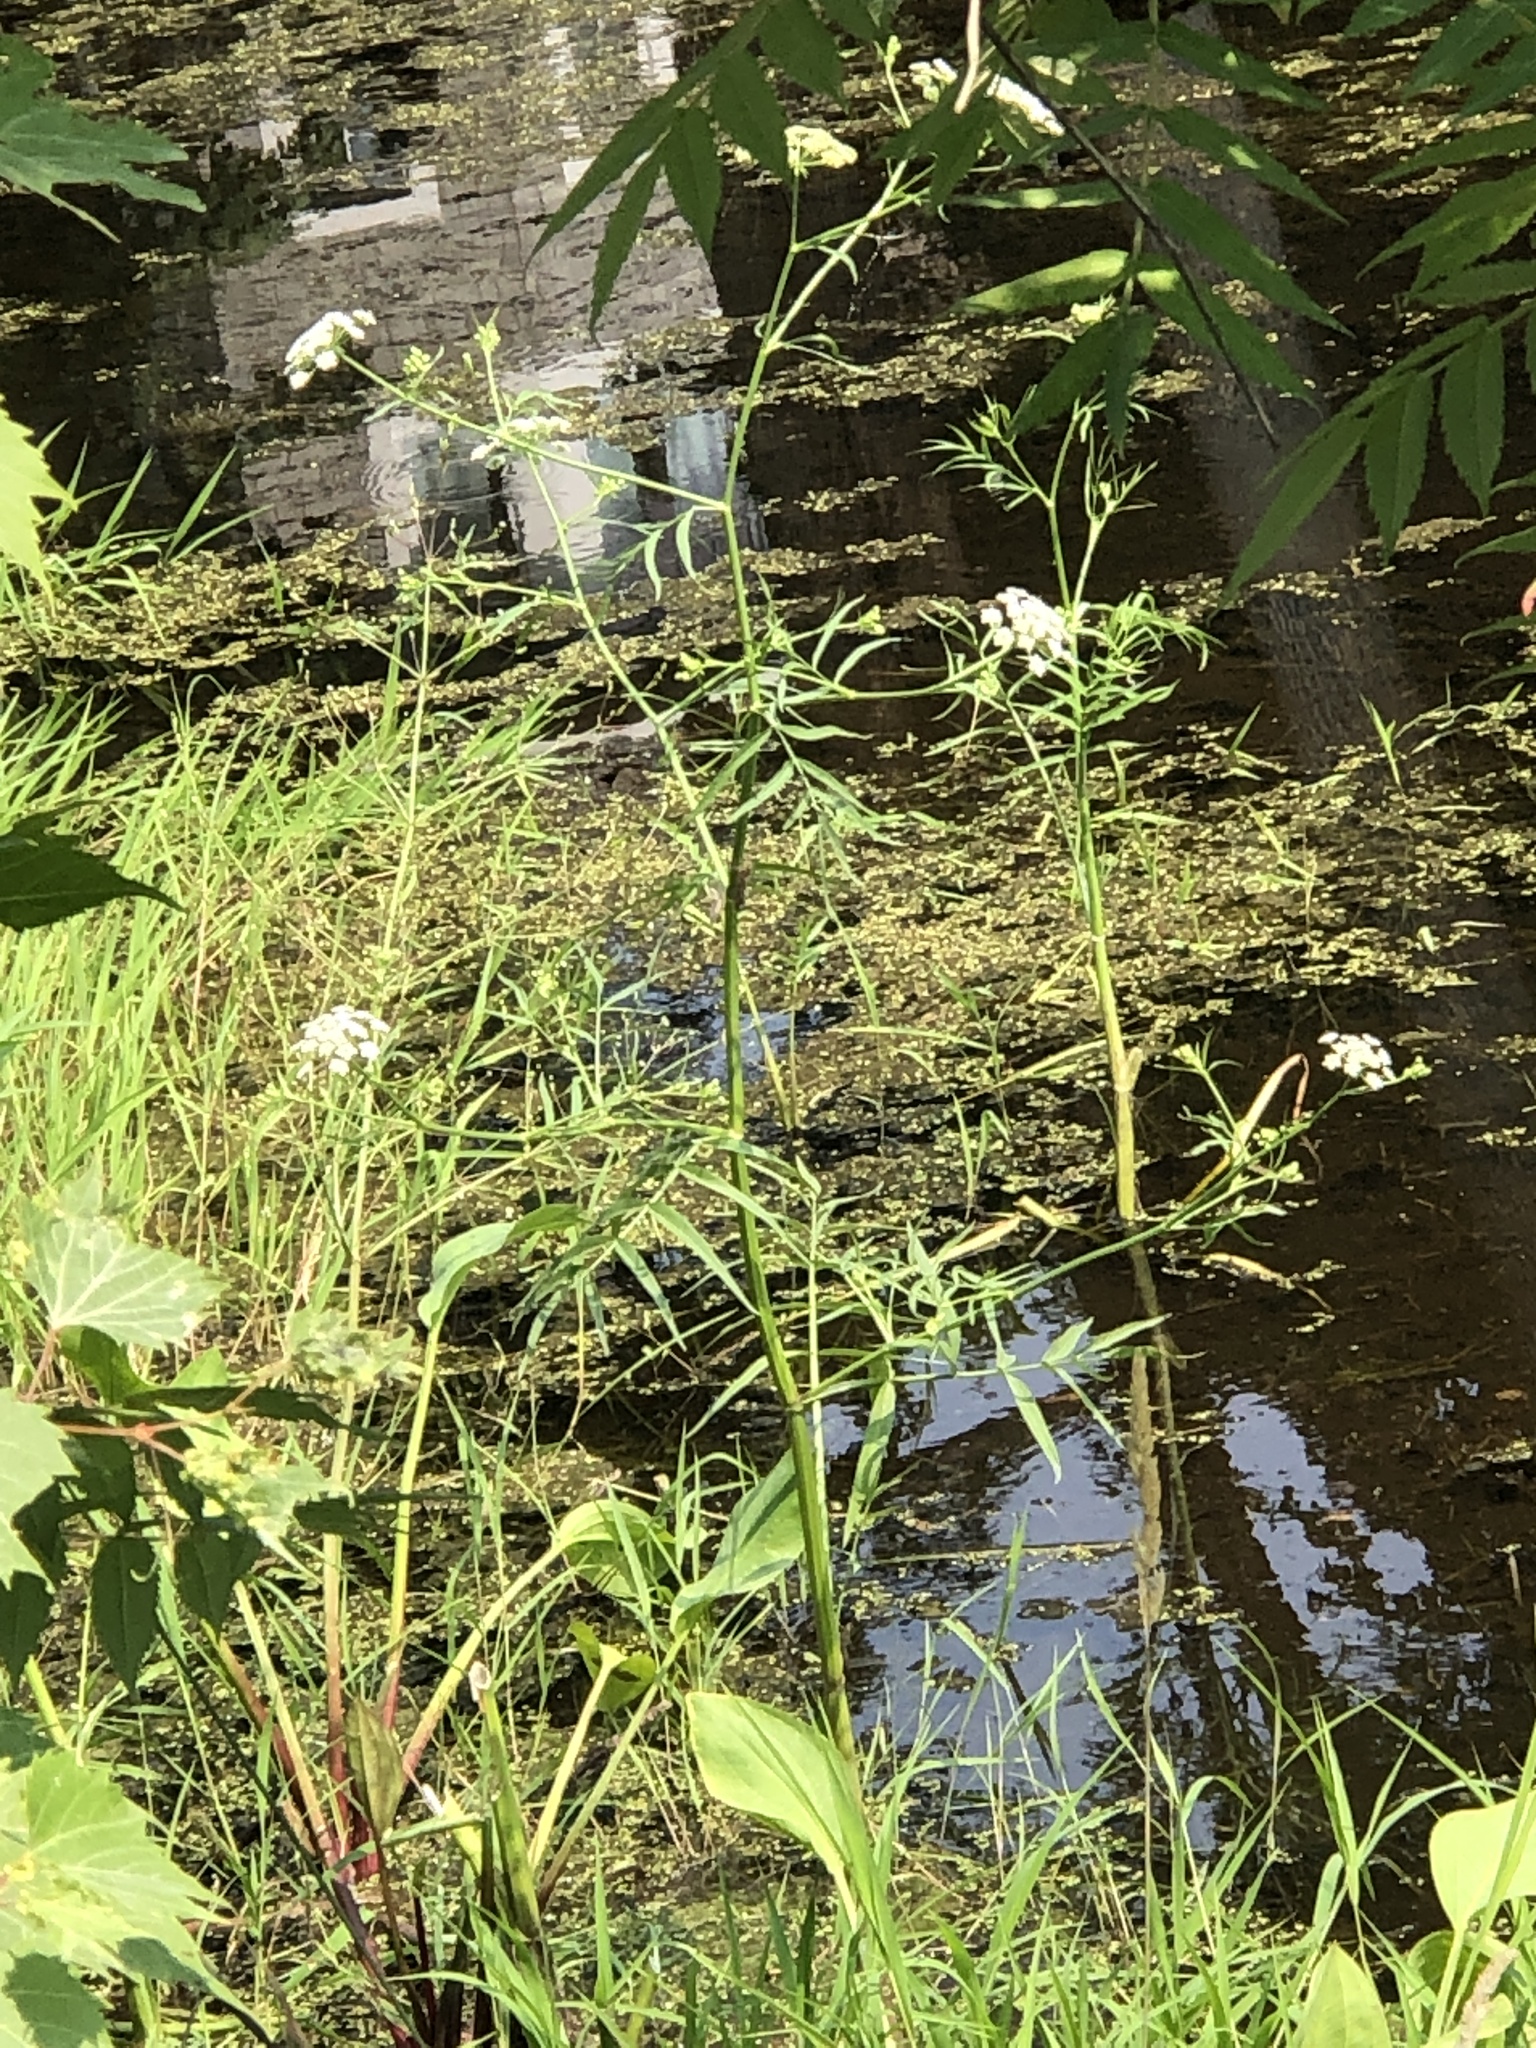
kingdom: Plantae
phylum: Tracheophyta
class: Magnoliopsida
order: Apiales
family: Apiaceae
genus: Sium
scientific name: Sium suave
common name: Hemlock water-parsnip
